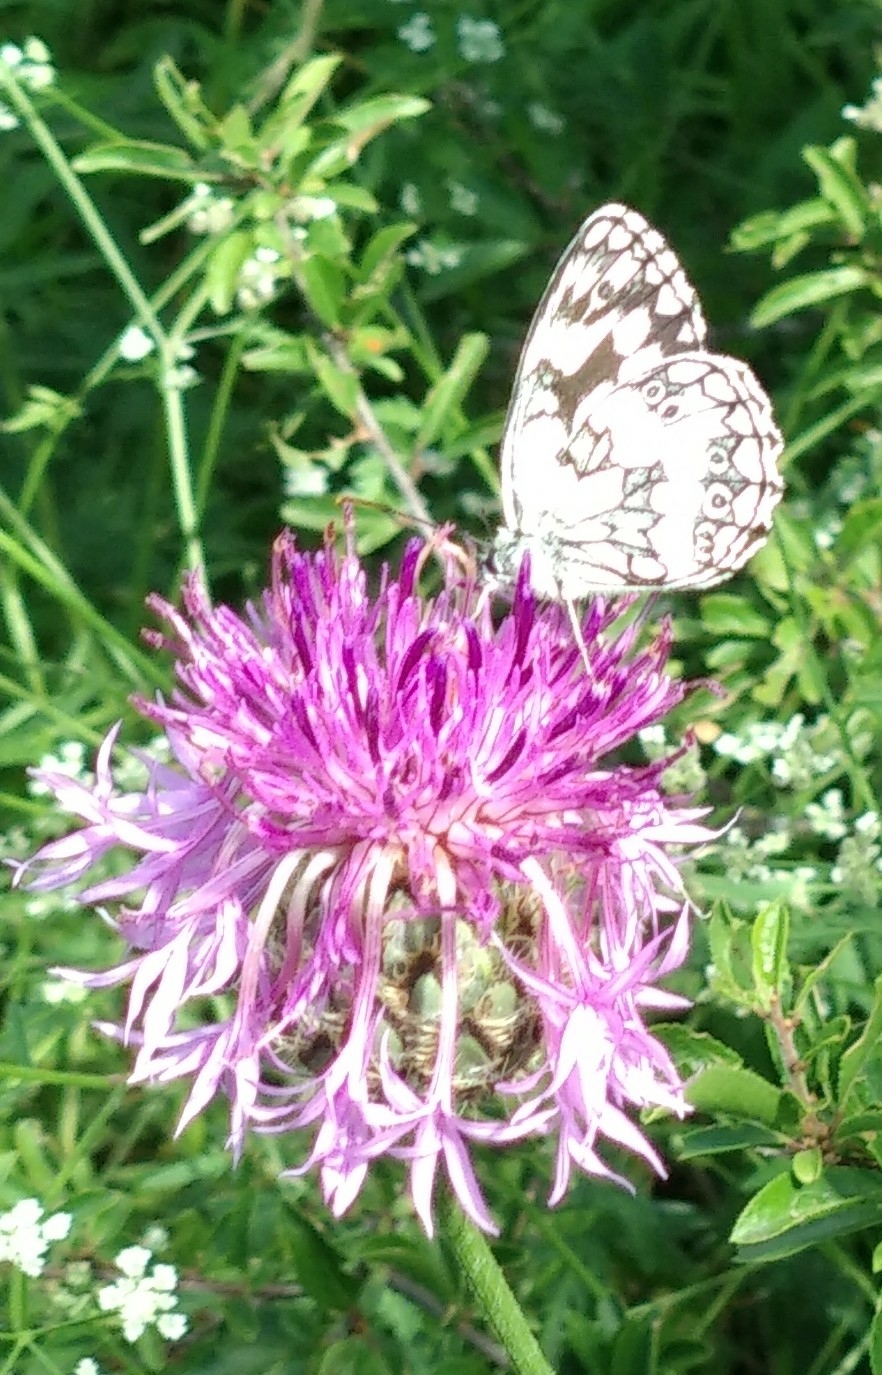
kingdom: Animalia
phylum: Arthropoda
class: Insecta
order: Lepidoptera
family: Nymphalidae
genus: Melanargia
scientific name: Melanargia galathea
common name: Marbled white
